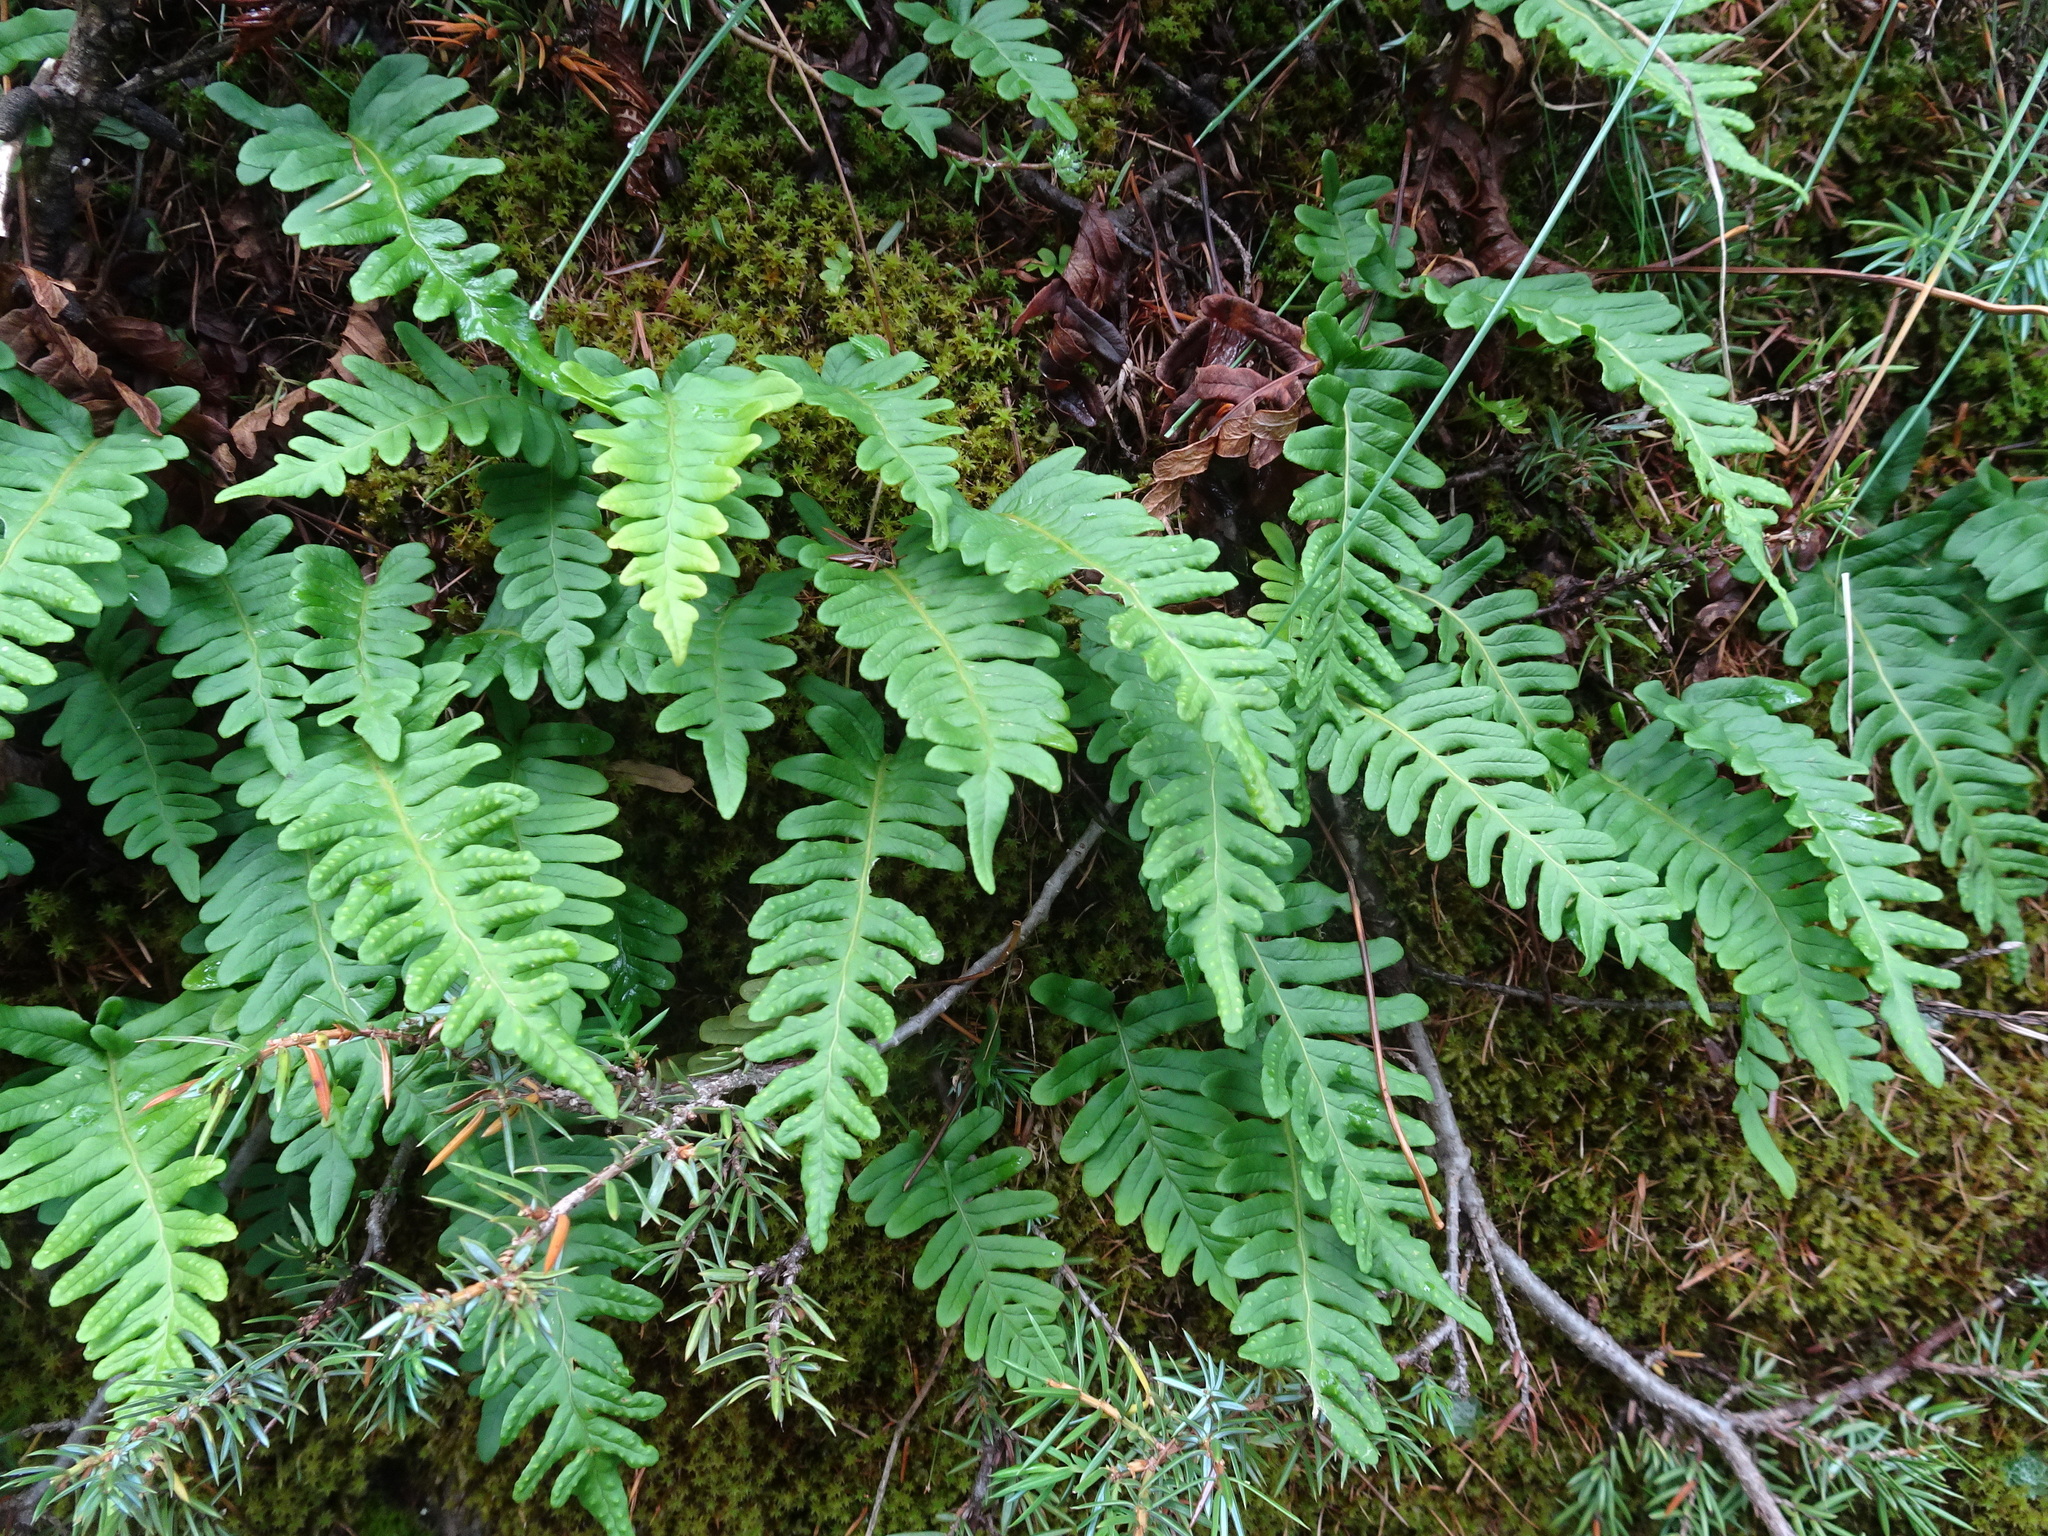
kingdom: Plantae
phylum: Tracheophyta
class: Polypodiopsida
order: Polypodiales
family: Polypodiaceae
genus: Polypodium
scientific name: Polypodium vulgare
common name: Common polypody
